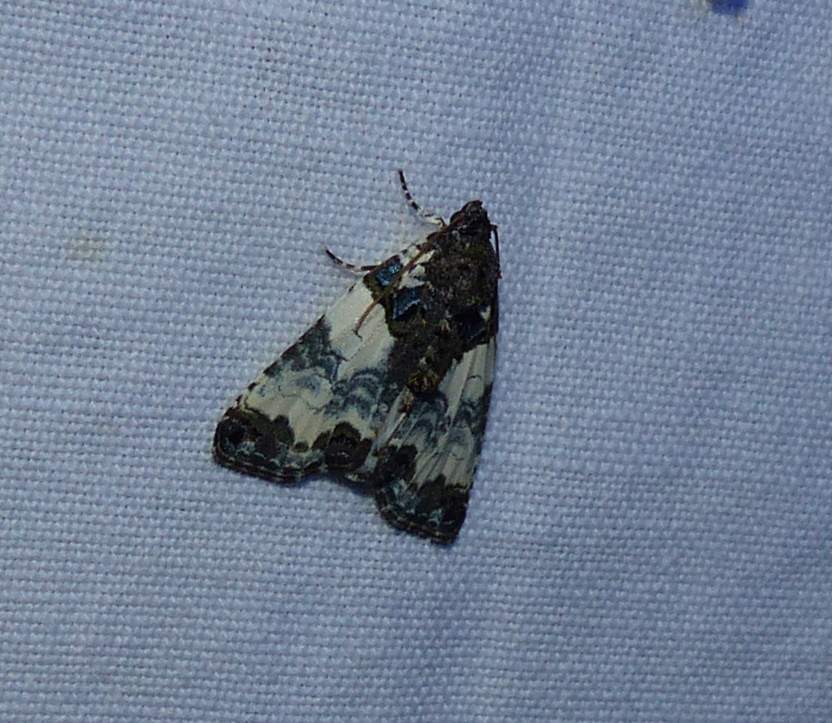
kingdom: Animalia
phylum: Arthropoda
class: Insecta
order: Lepidoptera
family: Noctuidae
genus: Cerma
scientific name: Cerma cerintha
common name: Tufted bird-dropping moth
